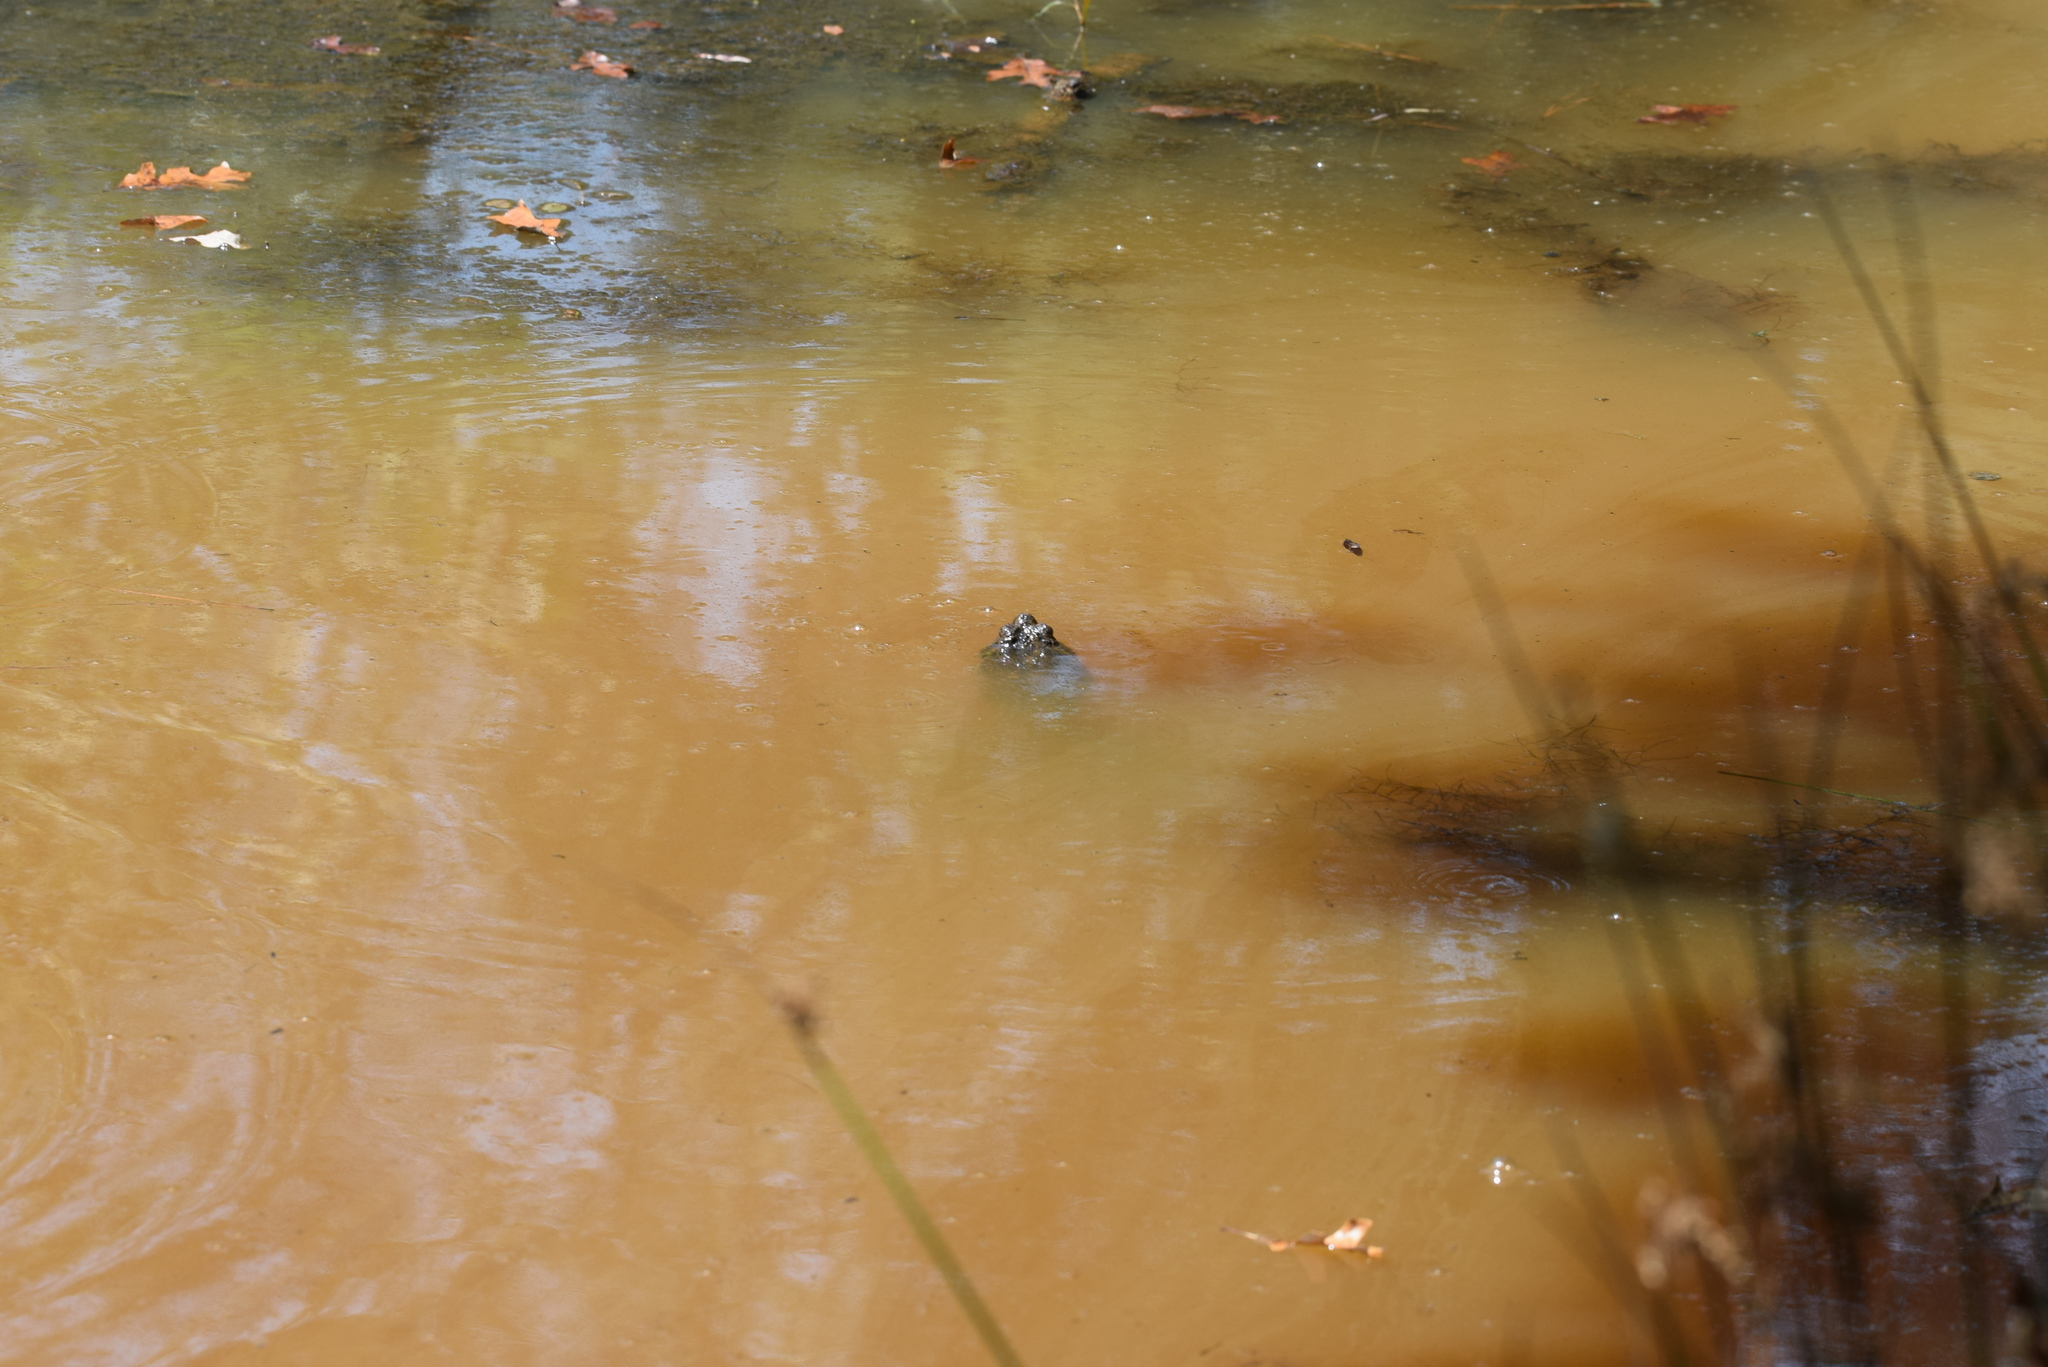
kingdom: Animalia
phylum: Chordata
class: Testudines
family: Chelydridae
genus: Chelydra
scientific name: Chelydra serpentina
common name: Common snapping turtle
